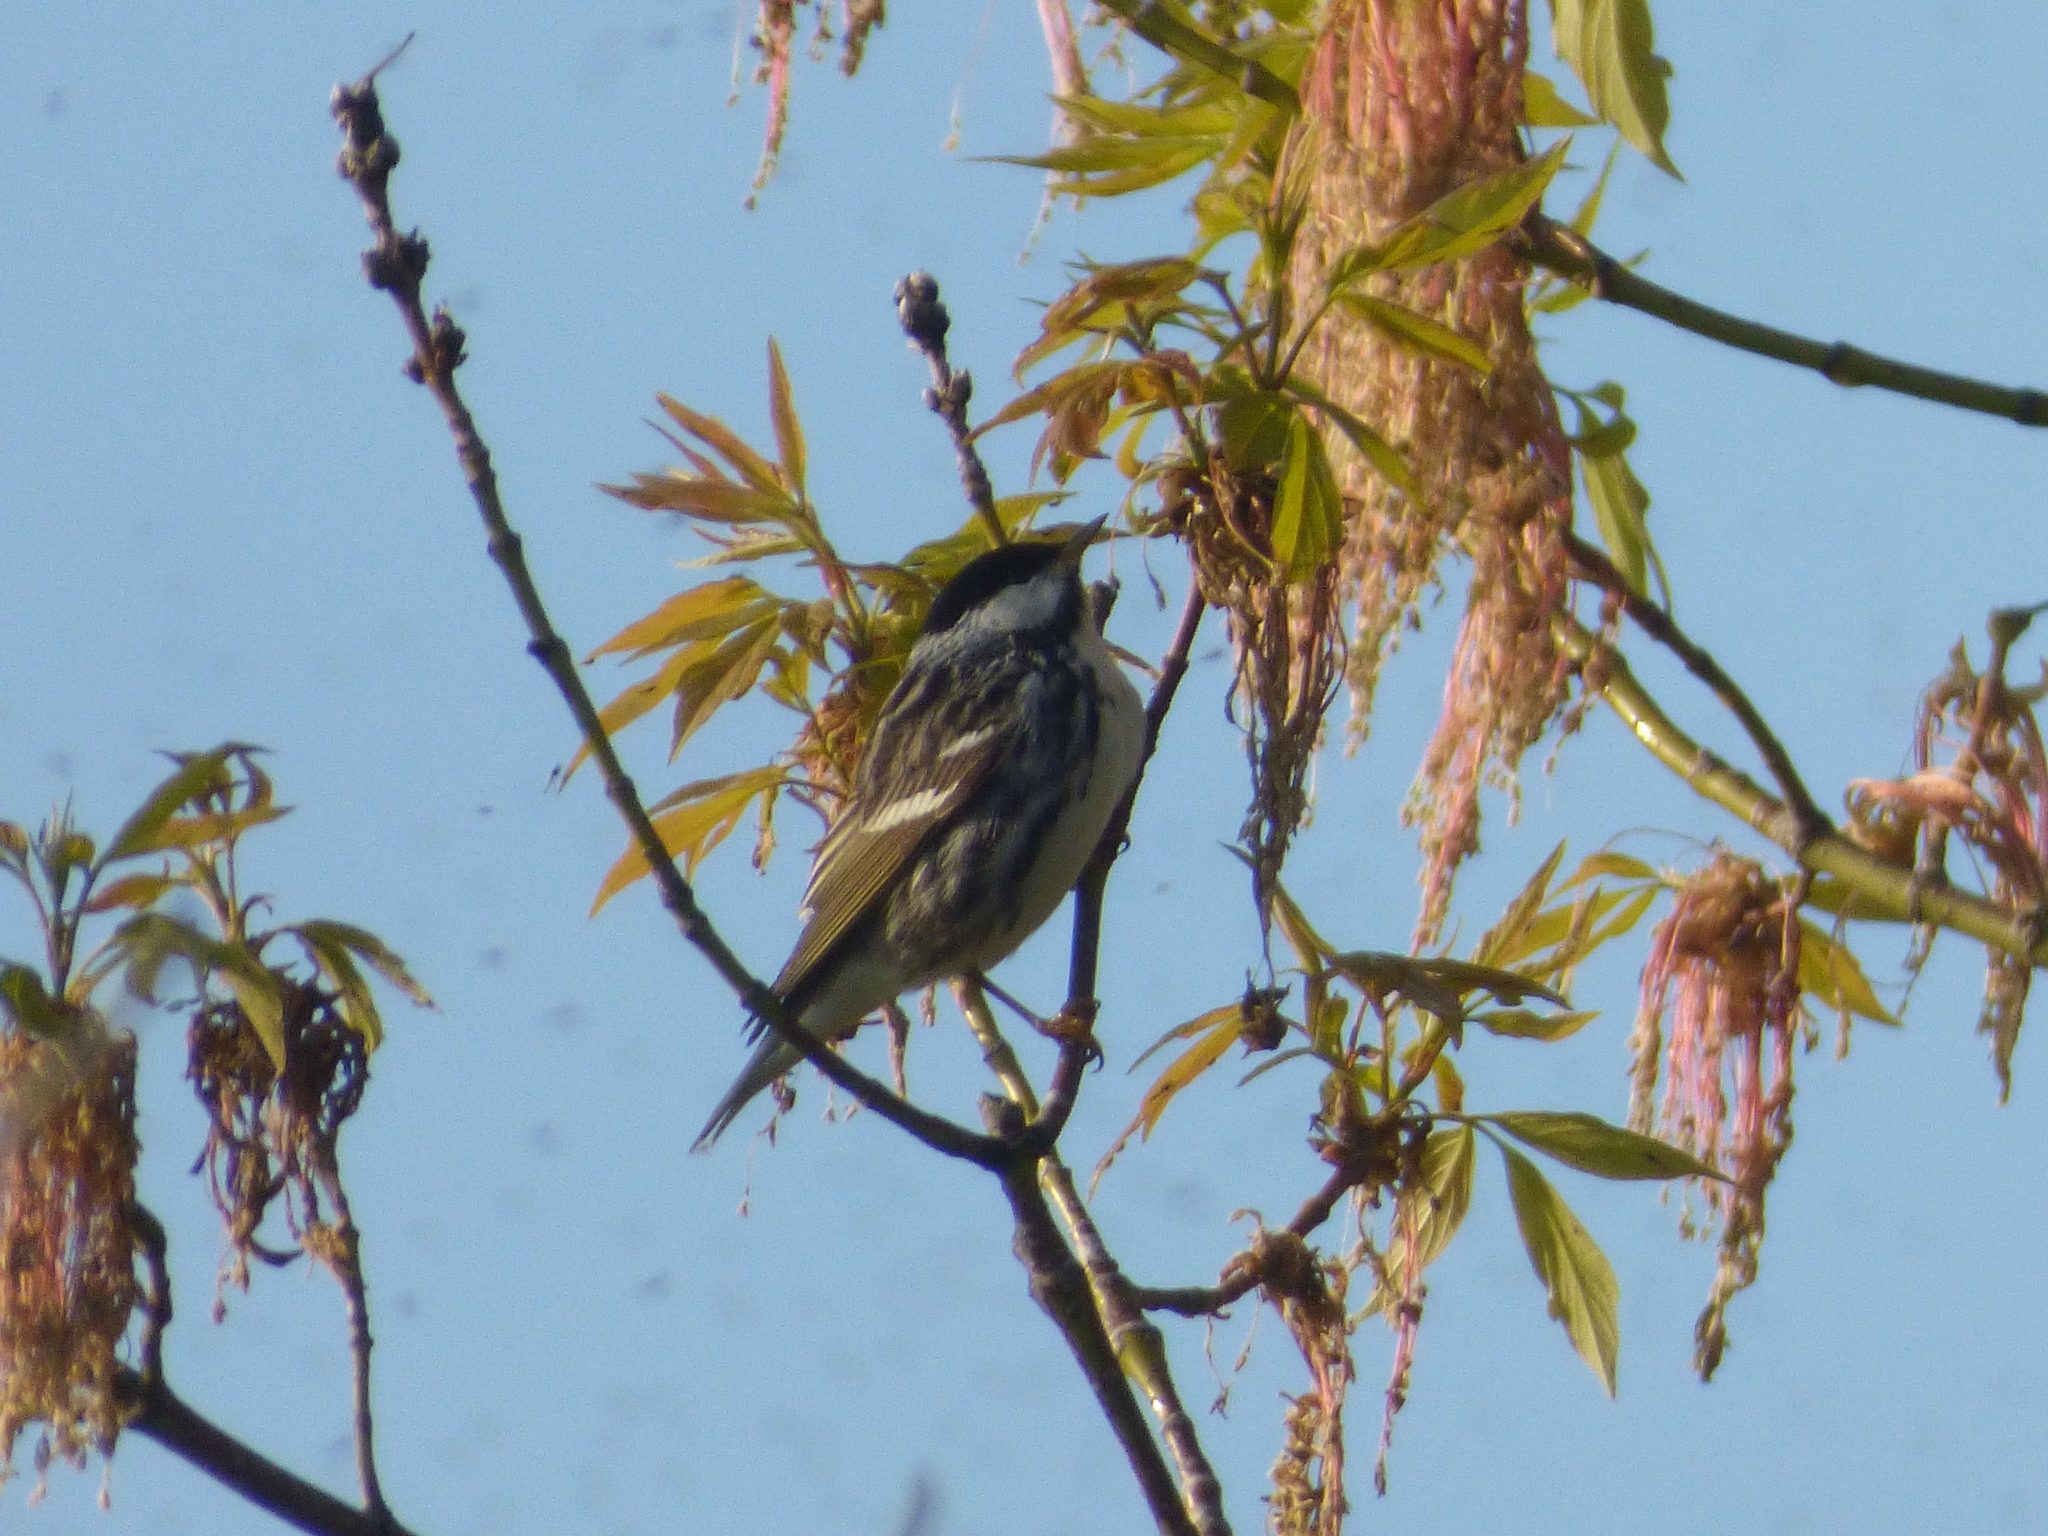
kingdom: Animalia
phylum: Chordata
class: Aves
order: Passeriformes
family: Parulidae
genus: Setophaga
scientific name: Setophaga striata
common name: Blackpoll warbler
